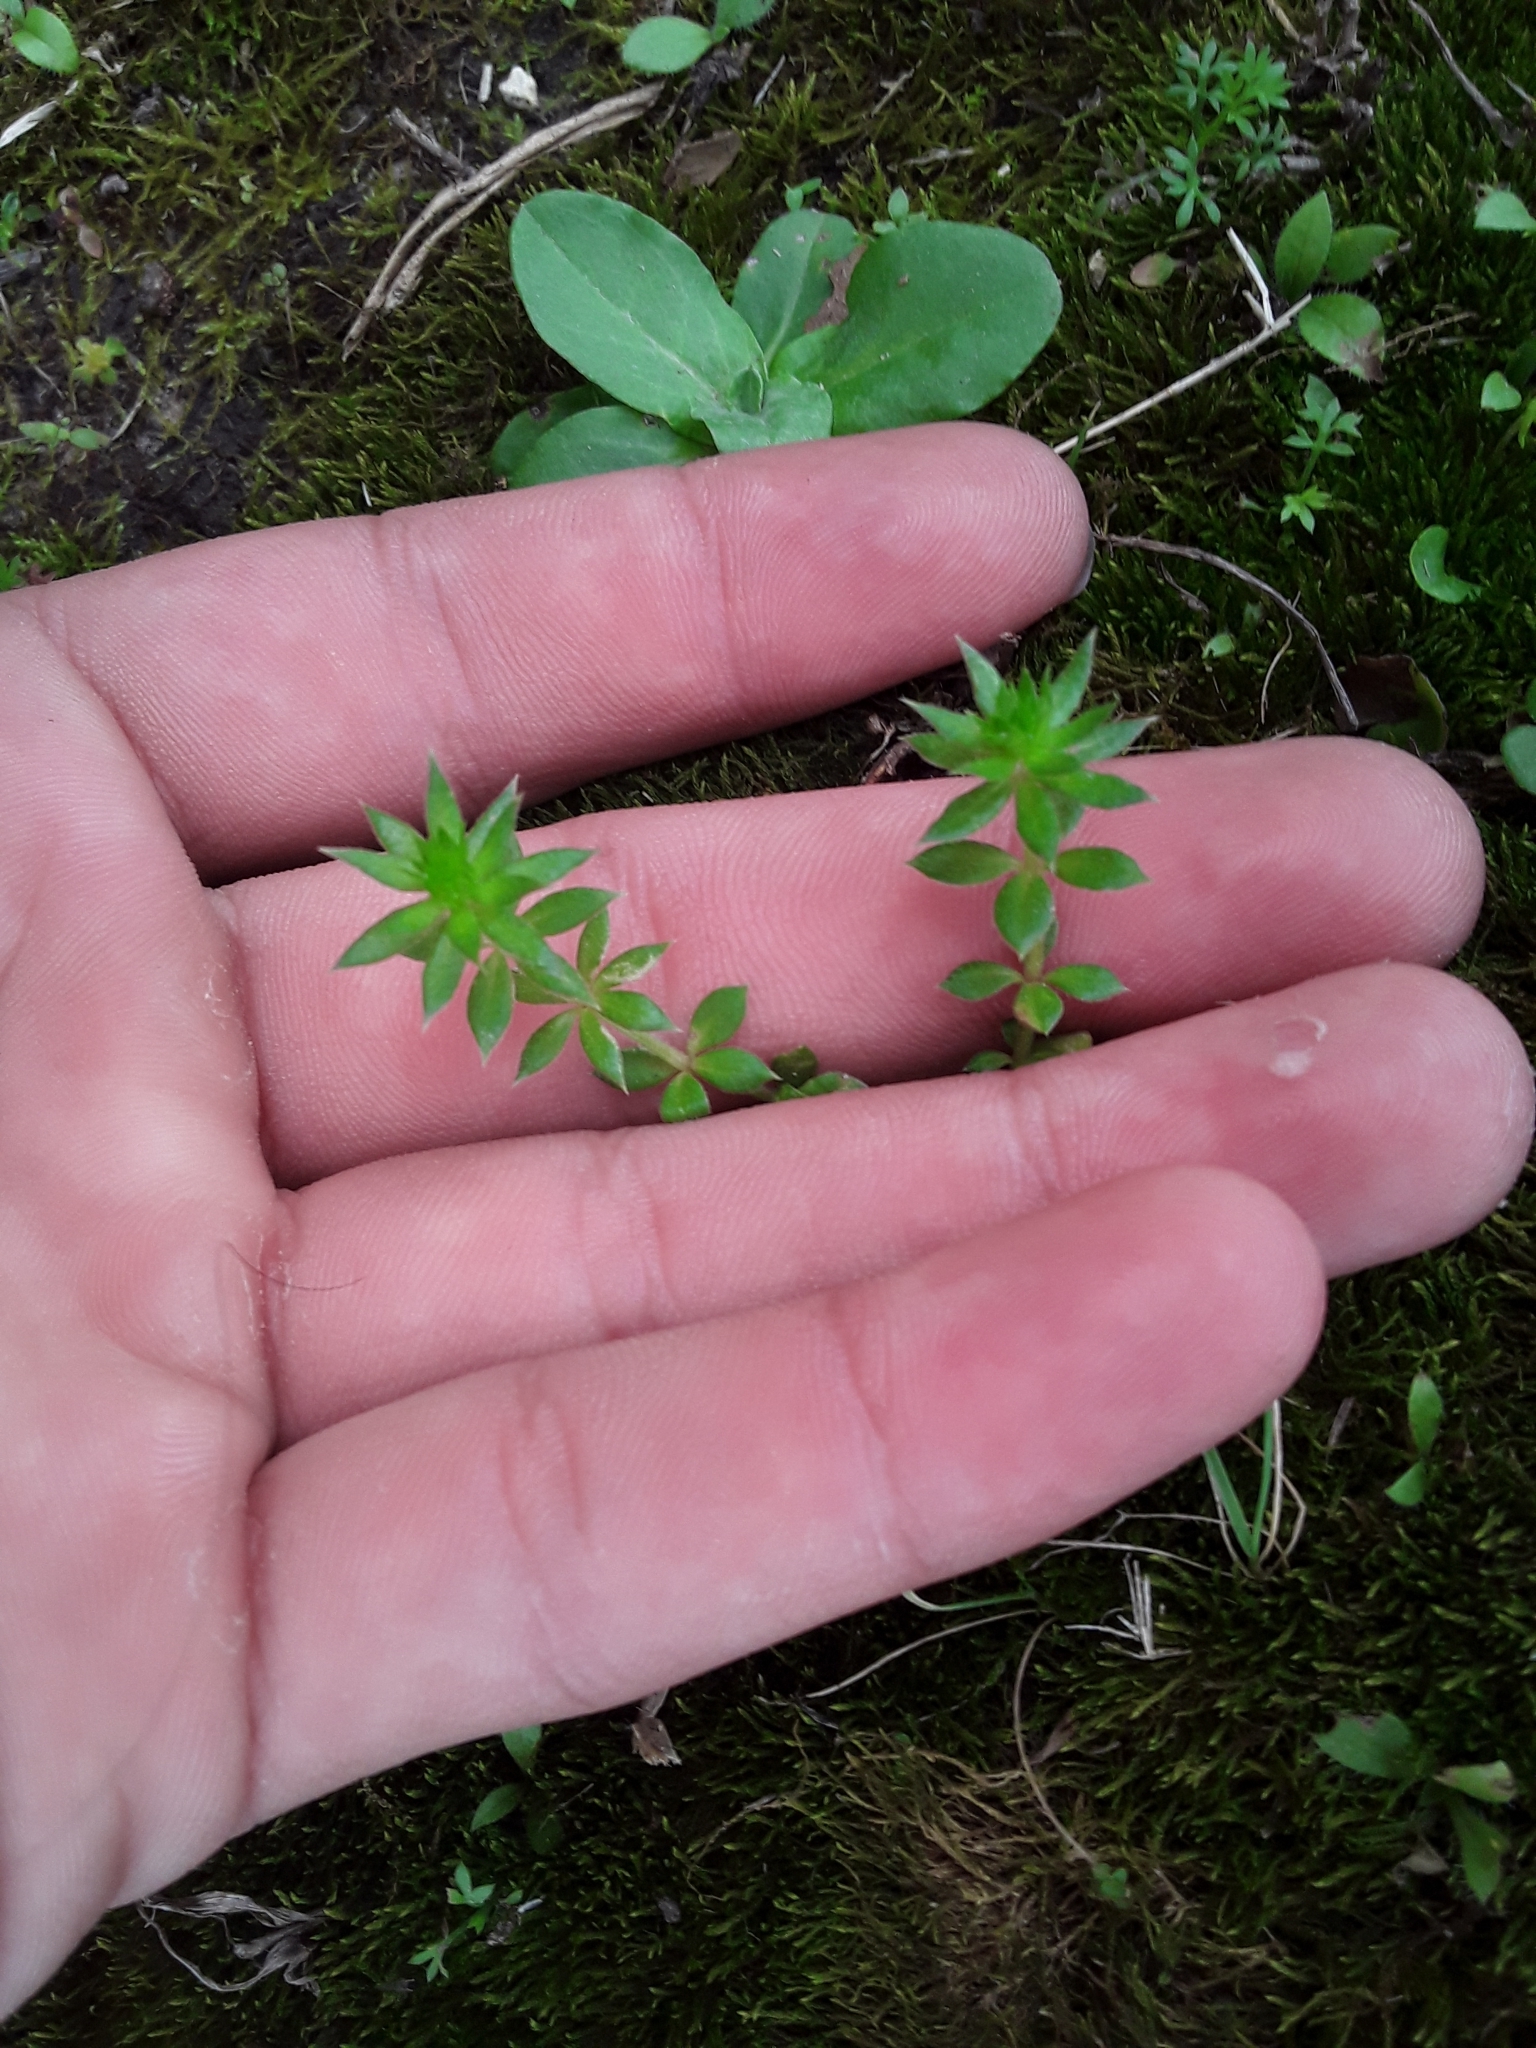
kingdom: Plantae
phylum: Tracheophyta
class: Magnoliopsida
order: Gentianales
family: Rubiaceae
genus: Sherardia
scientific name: Sherardia arvensis
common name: Field madder
